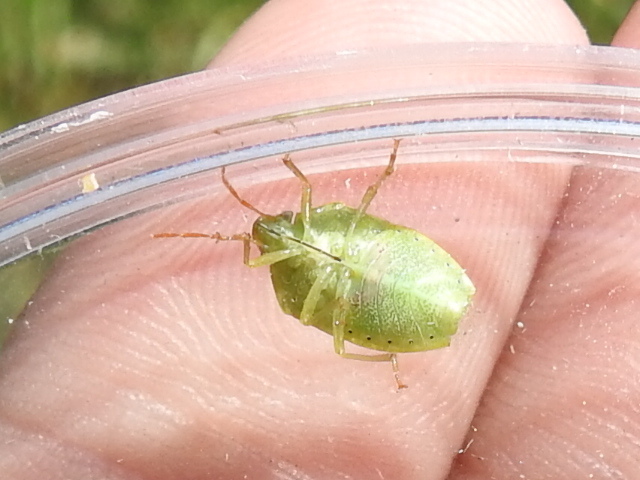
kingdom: Animalia
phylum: Arthropoda
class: Insecta
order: Hemiptera
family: Pentatomidae
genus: Banasa
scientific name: Banasa calva
